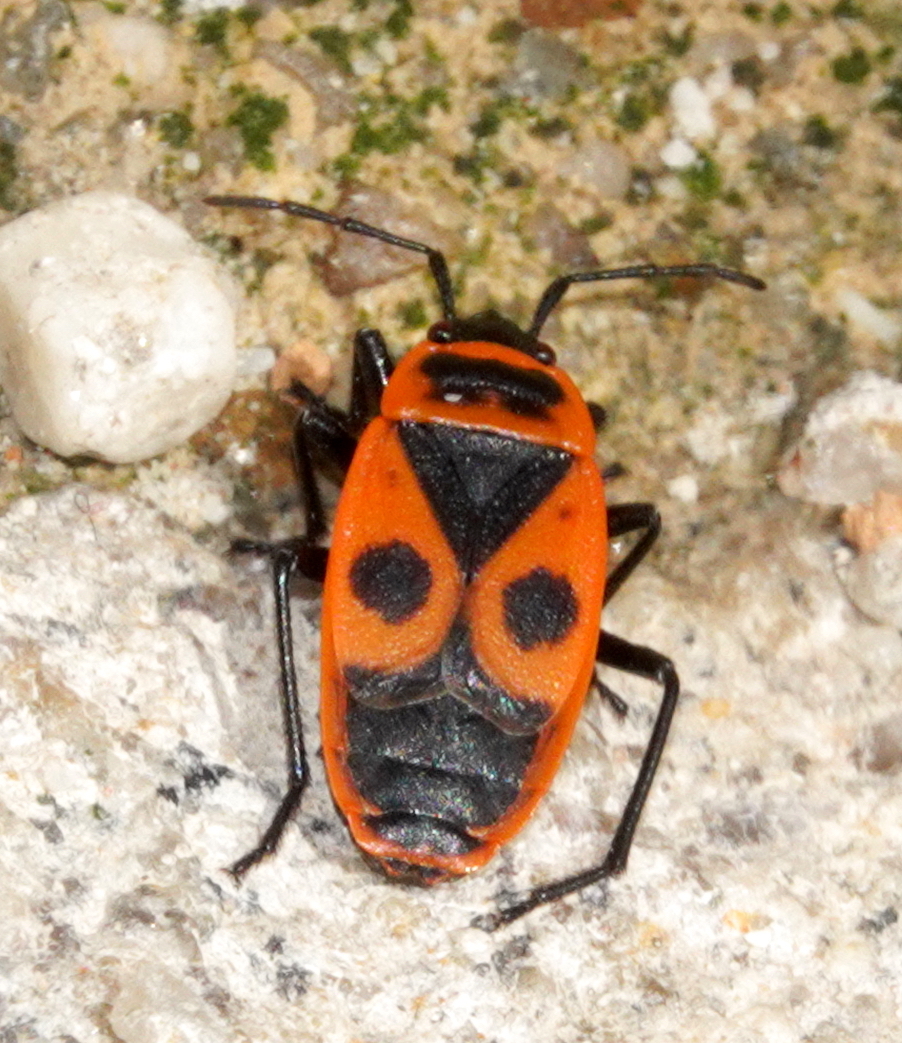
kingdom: Animalia
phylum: Arthropoda
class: Insecta
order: Hemiptera
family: Pyrrhocoridae
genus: Pyrrhocoris
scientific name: Pyrrhocoris apterus
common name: Firebug
